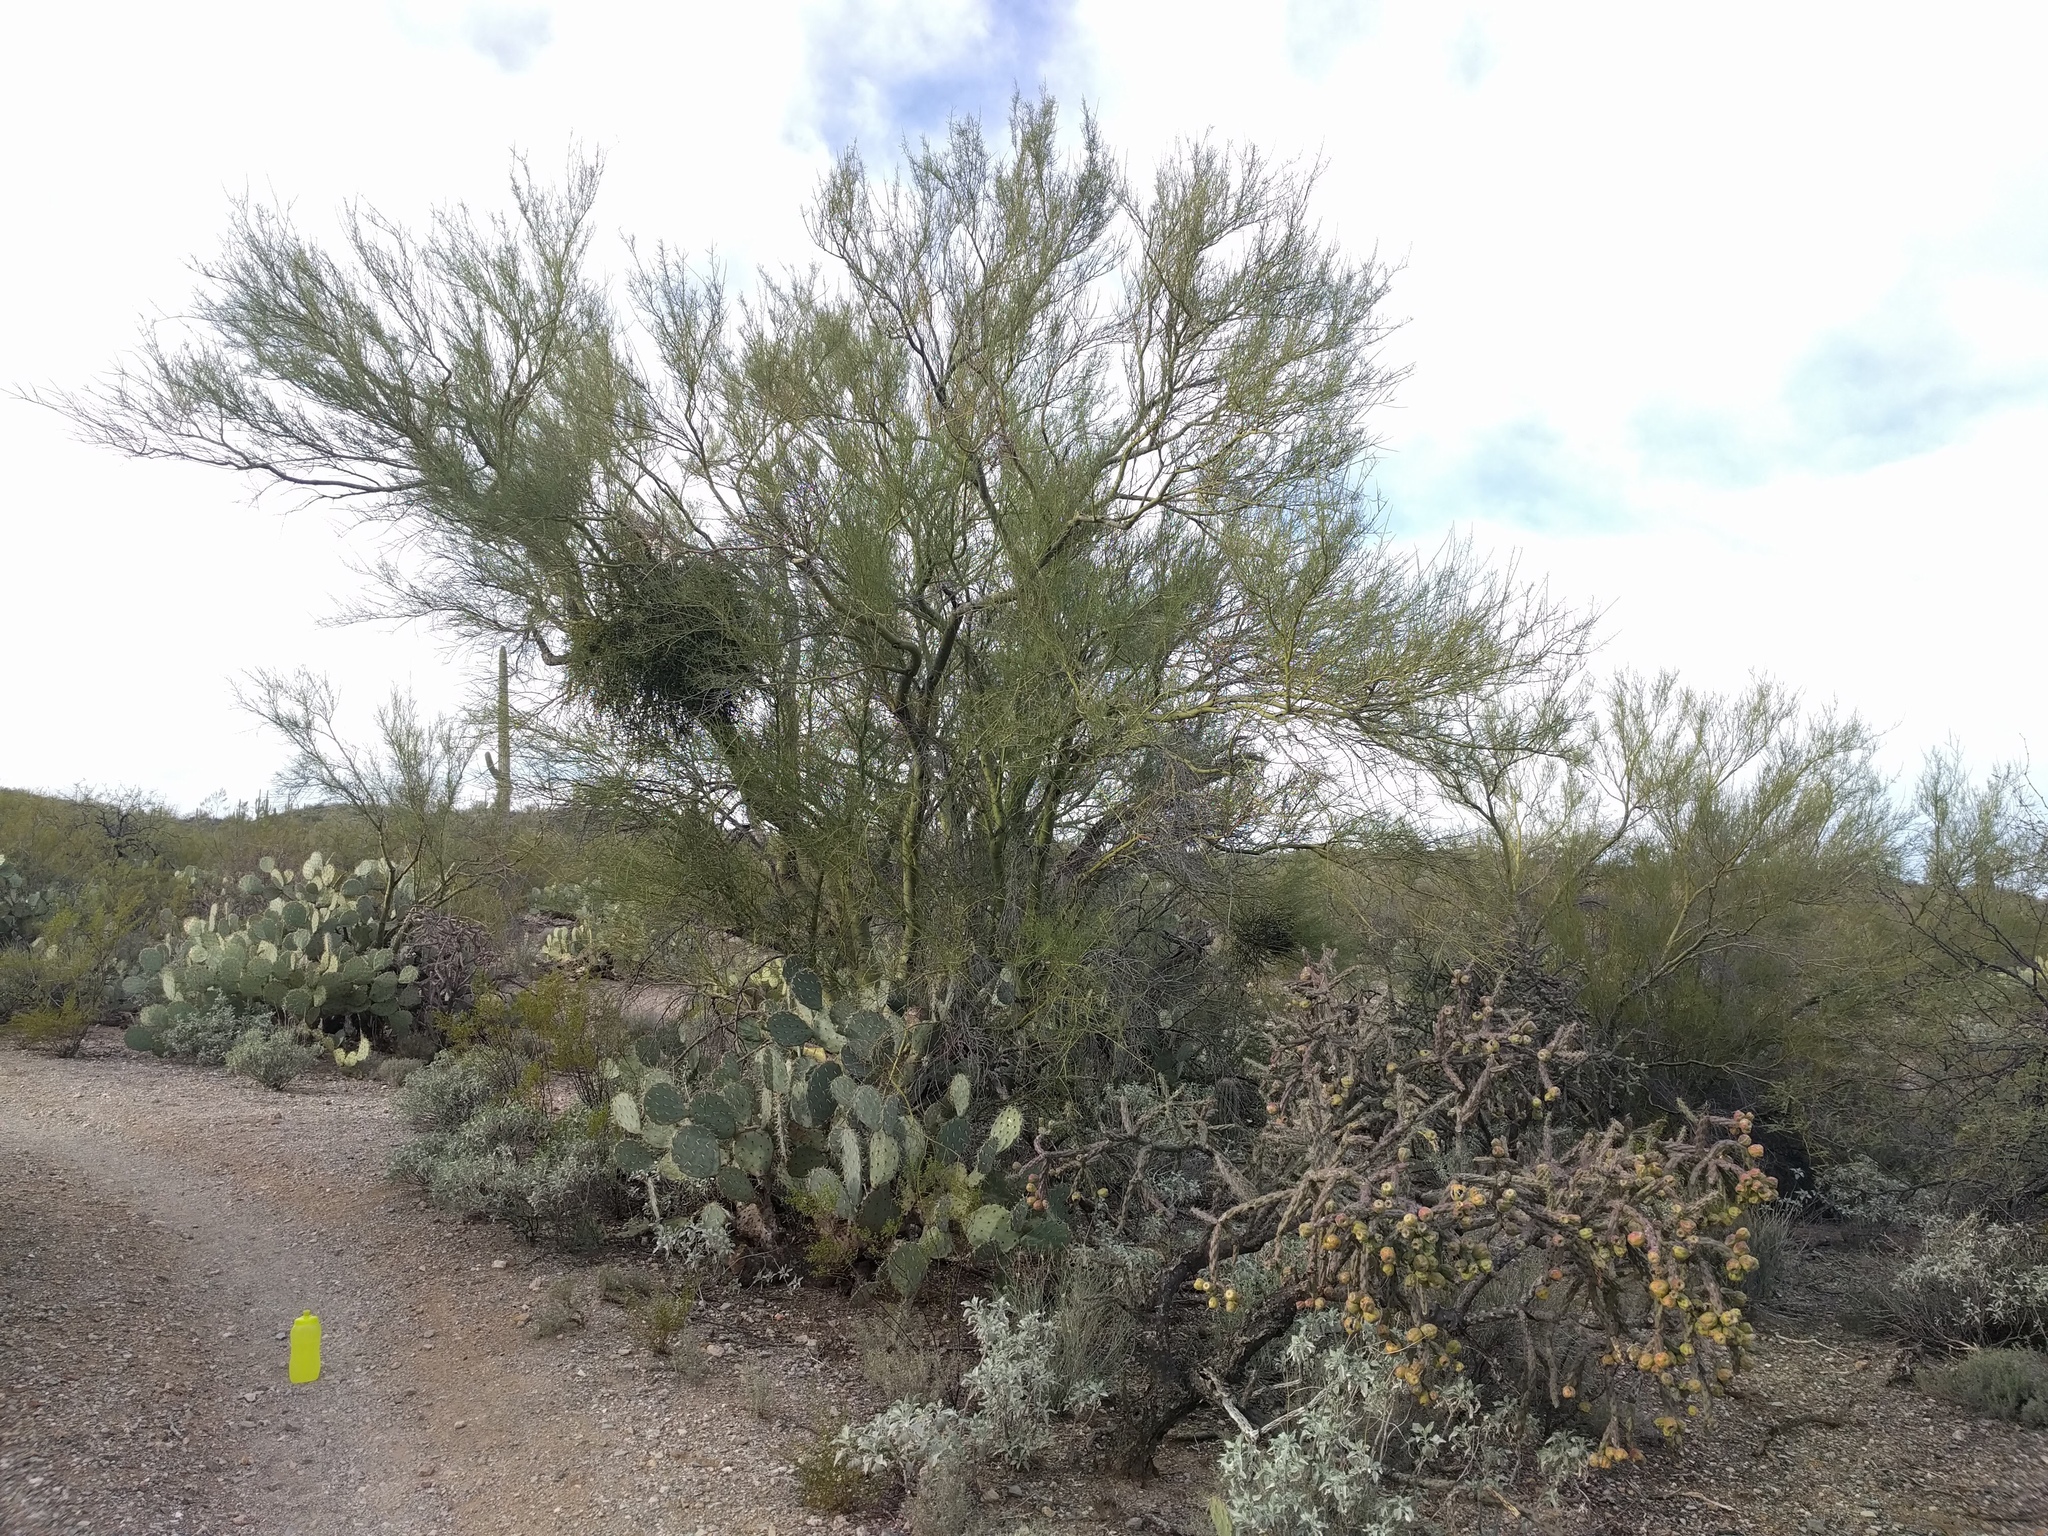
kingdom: Plantae
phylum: Tracheophyta
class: Magnoliopsida
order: Fabales
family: Fabaceae
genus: Parkinsonia
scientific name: Parkinsonia microphylla
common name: Yellow paloverde
